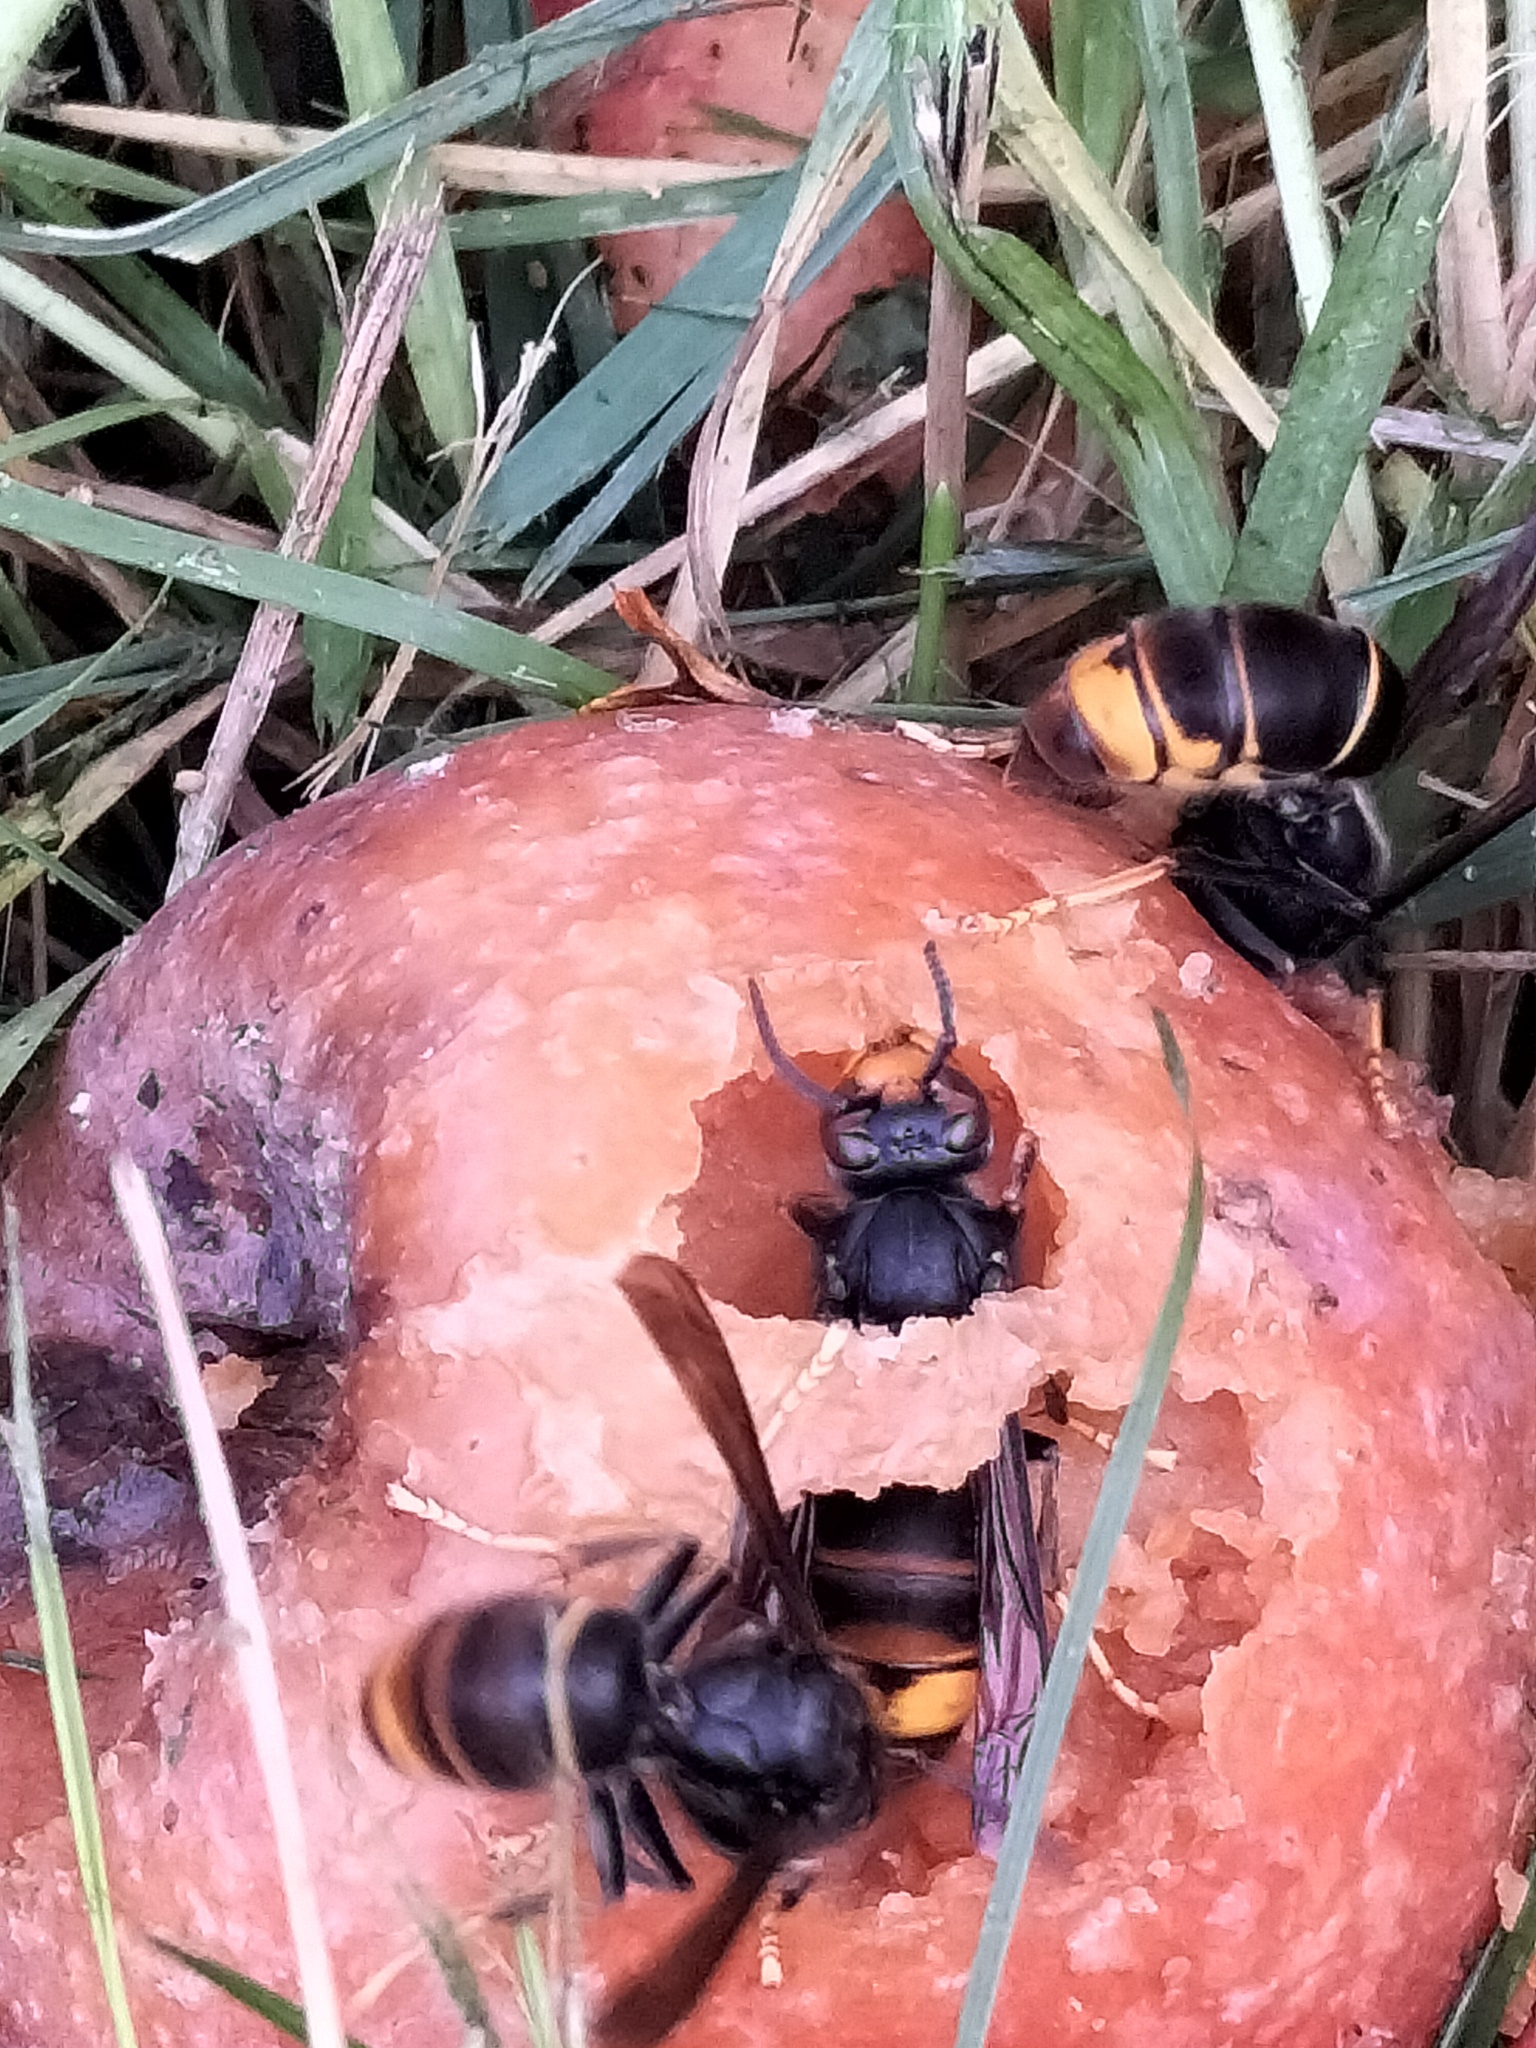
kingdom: Animalia
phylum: Arthropoda
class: Insecta
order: Hymenoptera
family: Vespidae
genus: Vespa
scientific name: Vespa velutina
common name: Asian hornet
